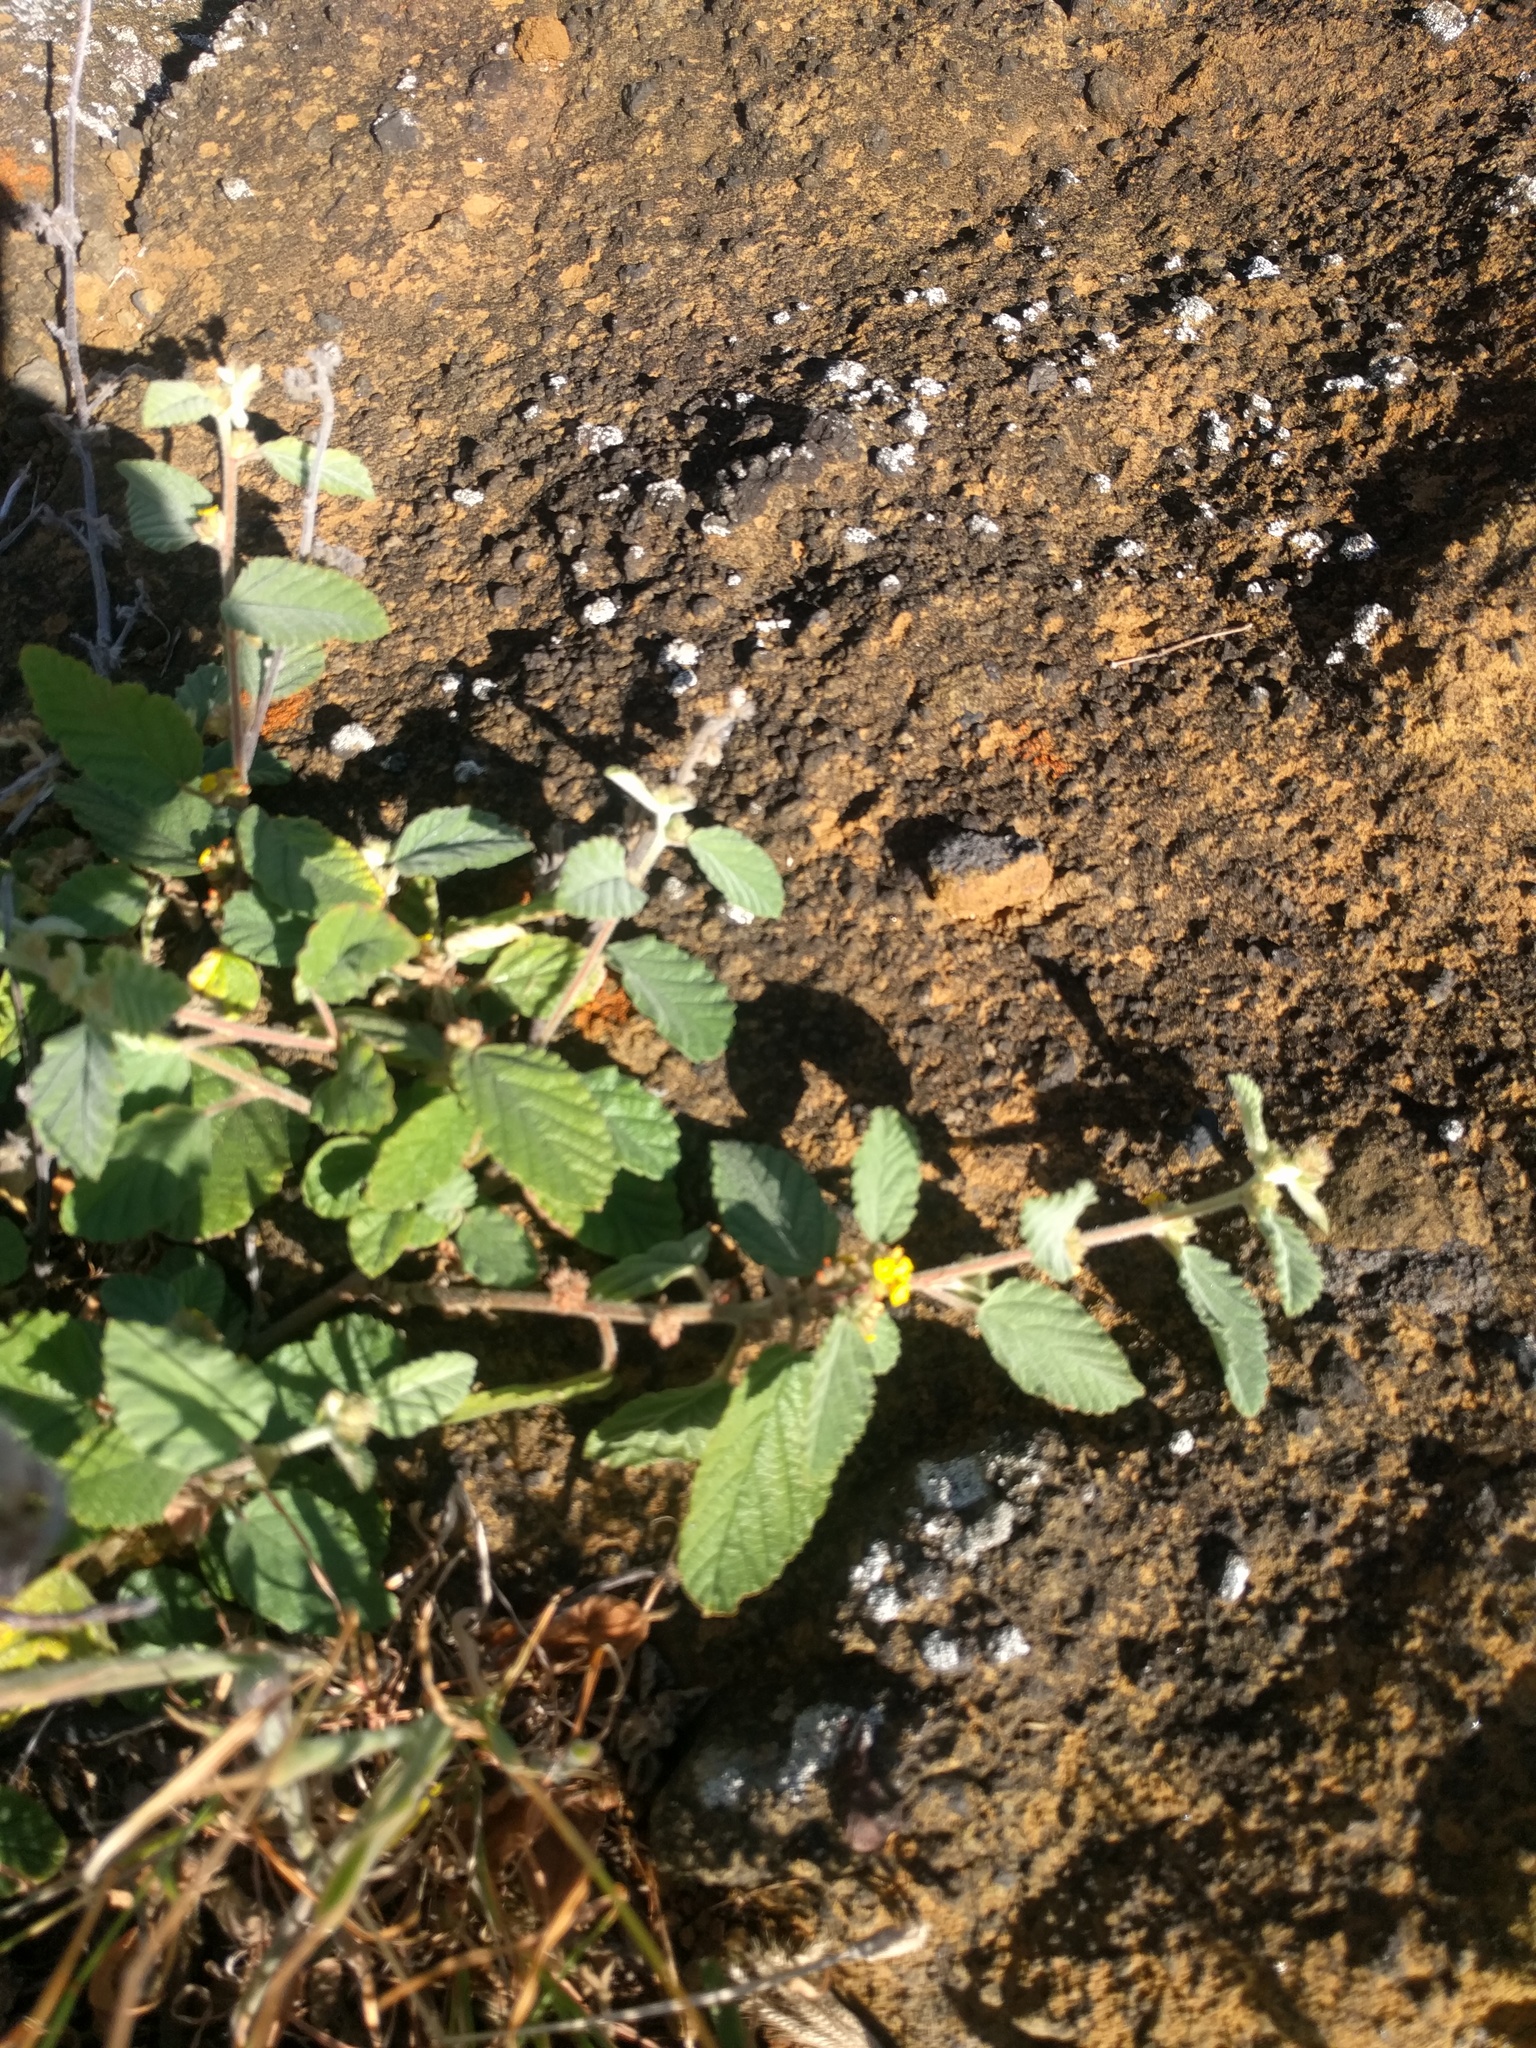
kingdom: Plantae
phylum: Tracheophyta
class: Magnoliopsida
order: Malvales
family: Malvaceae
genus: Waltheria
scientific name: Waltheria indica
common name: Leather-coat
